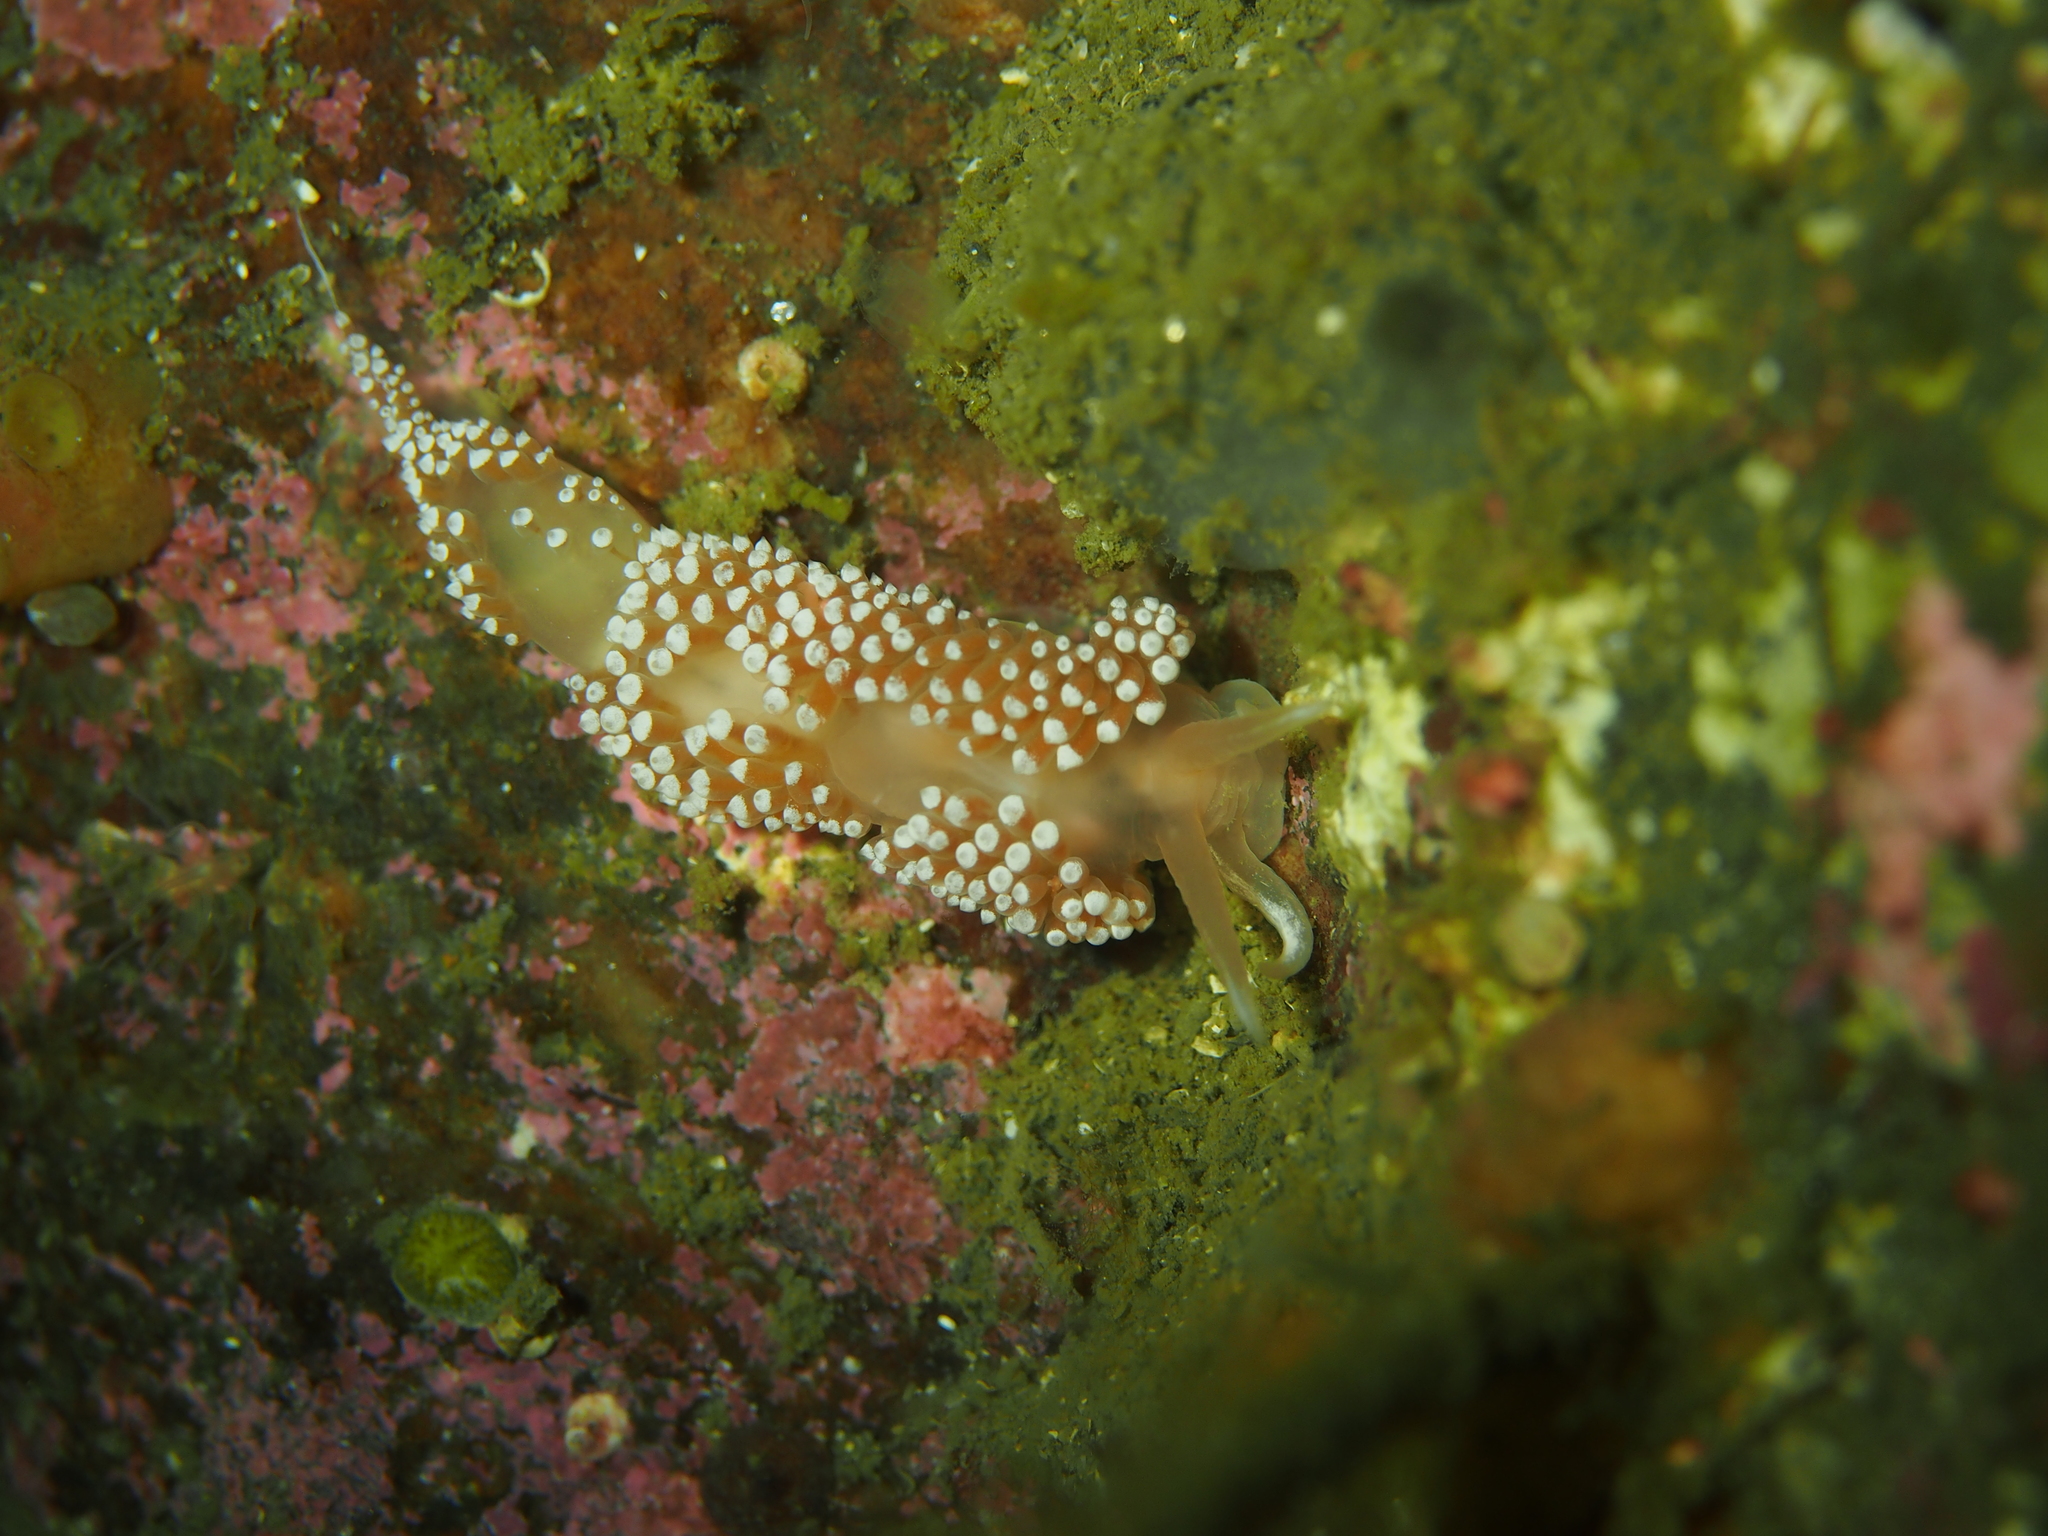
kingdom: Animalia
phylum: Mollusca
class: Gastropoda
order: Nudibranchia
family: Coryphellidae
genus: Coryphella
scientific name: Coryphella verrucosa
